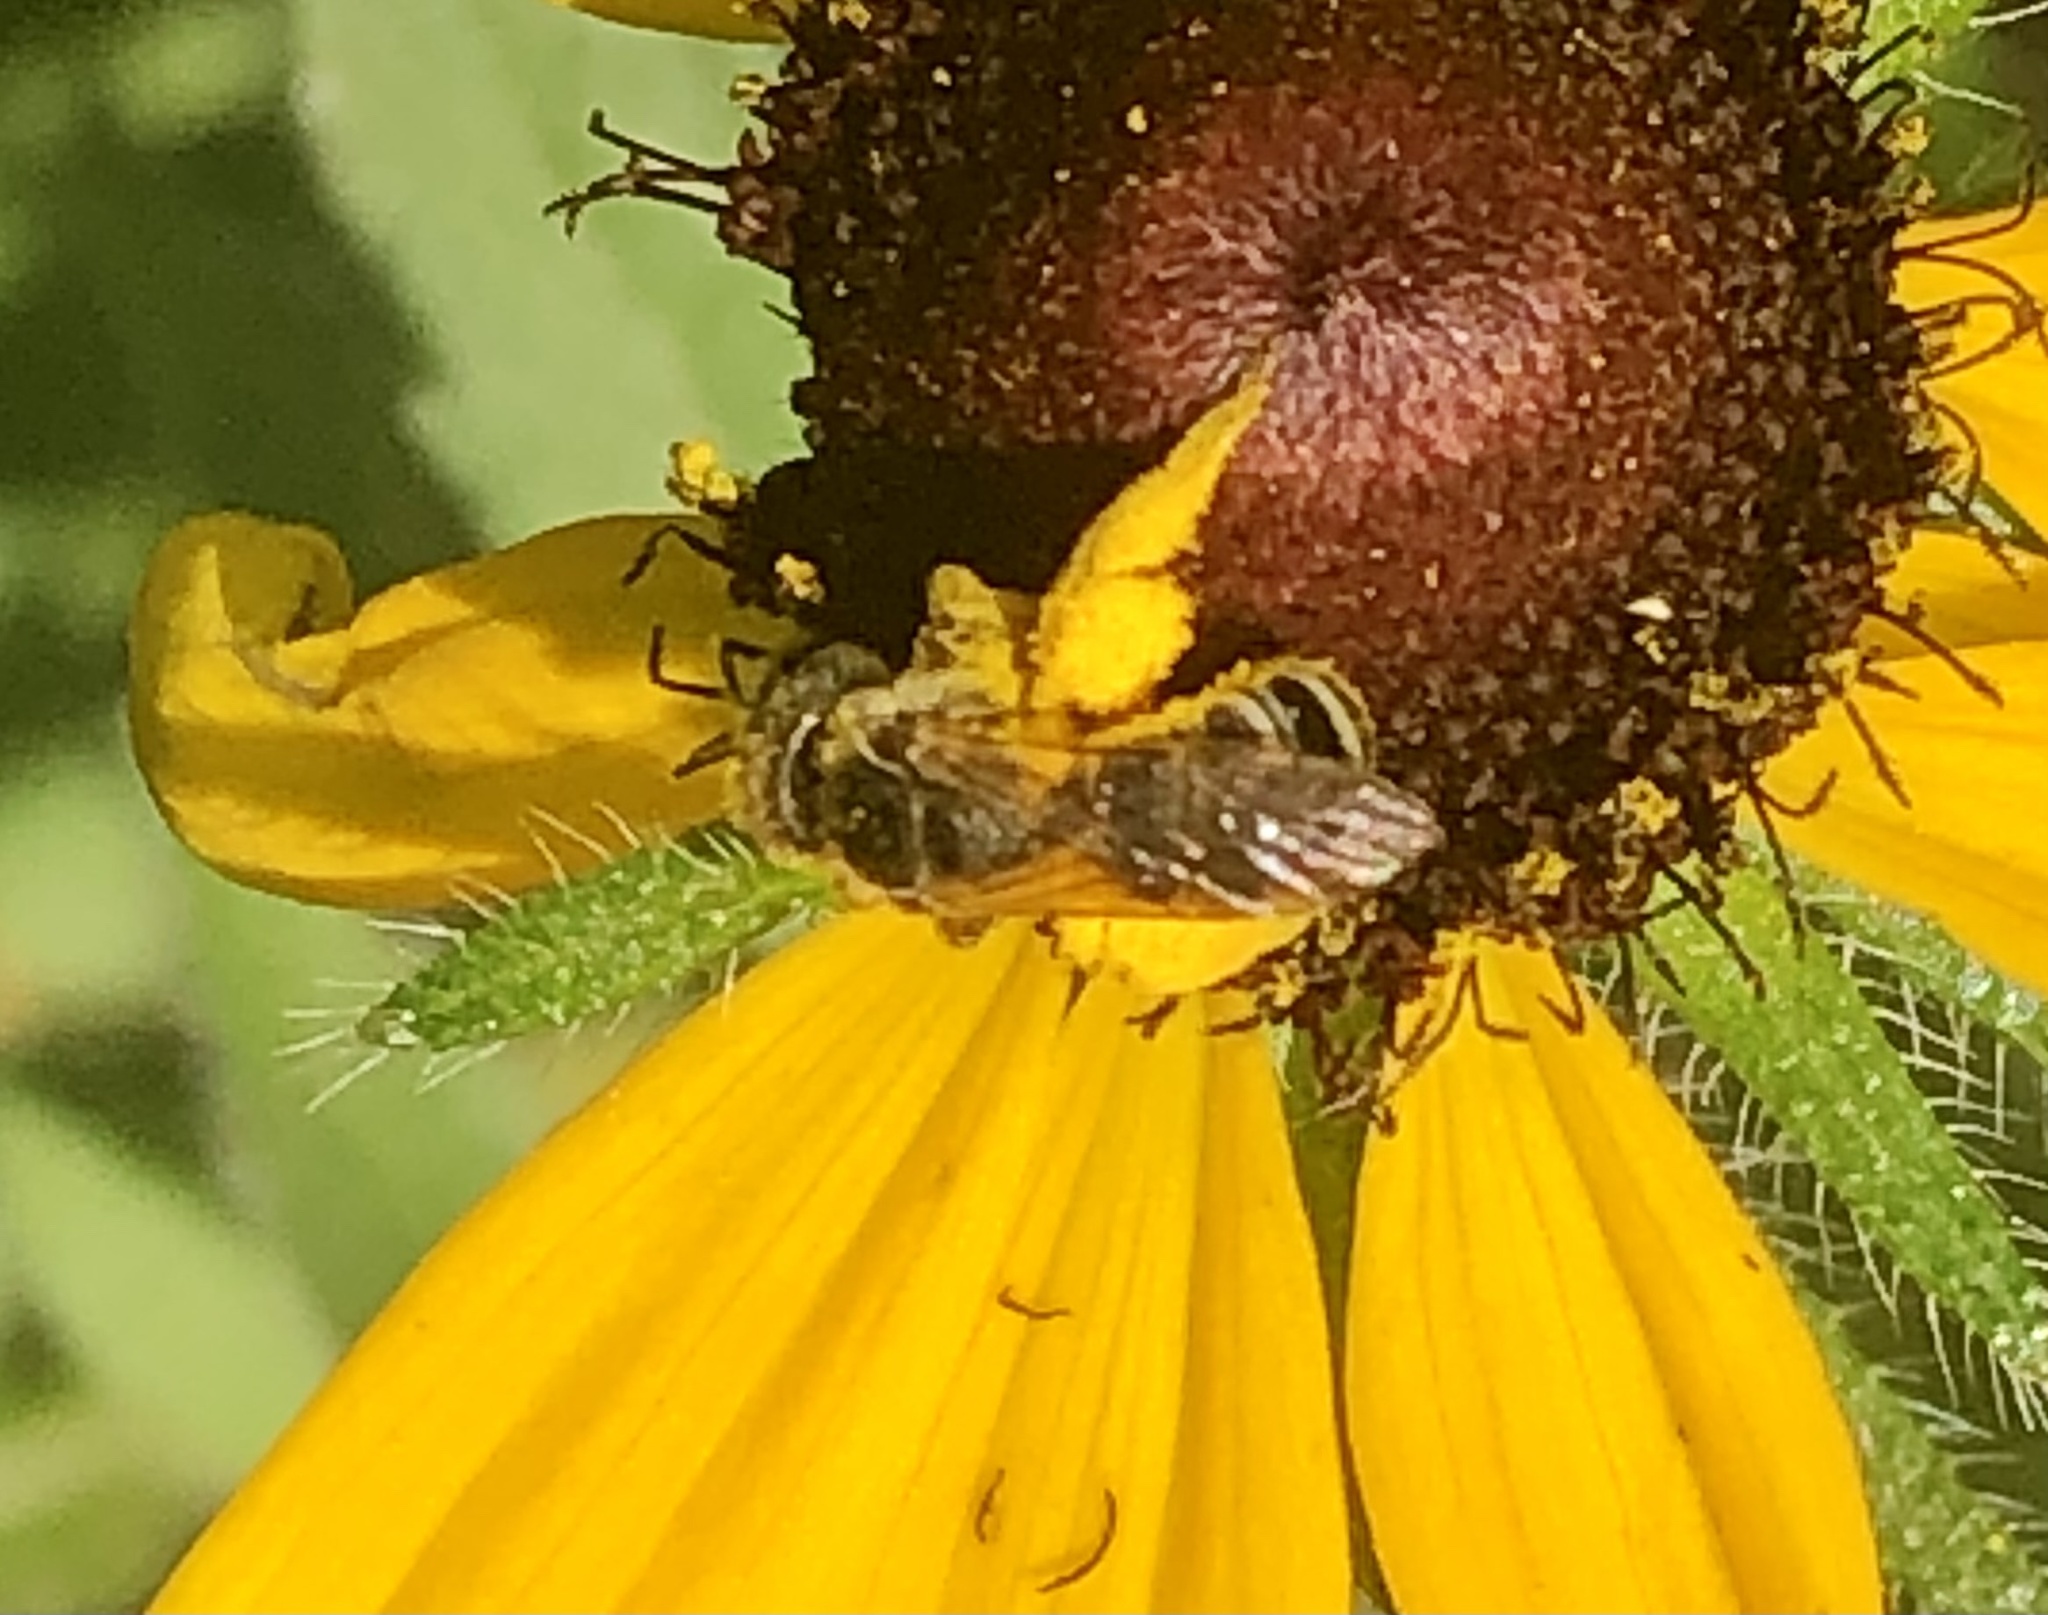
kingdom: Animalia
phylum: Arthropoda
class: Insecta
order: Hymenoptera
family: Halictidae
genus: Halictus
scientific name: Halictus ligatus
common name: Ligated furrow bee
